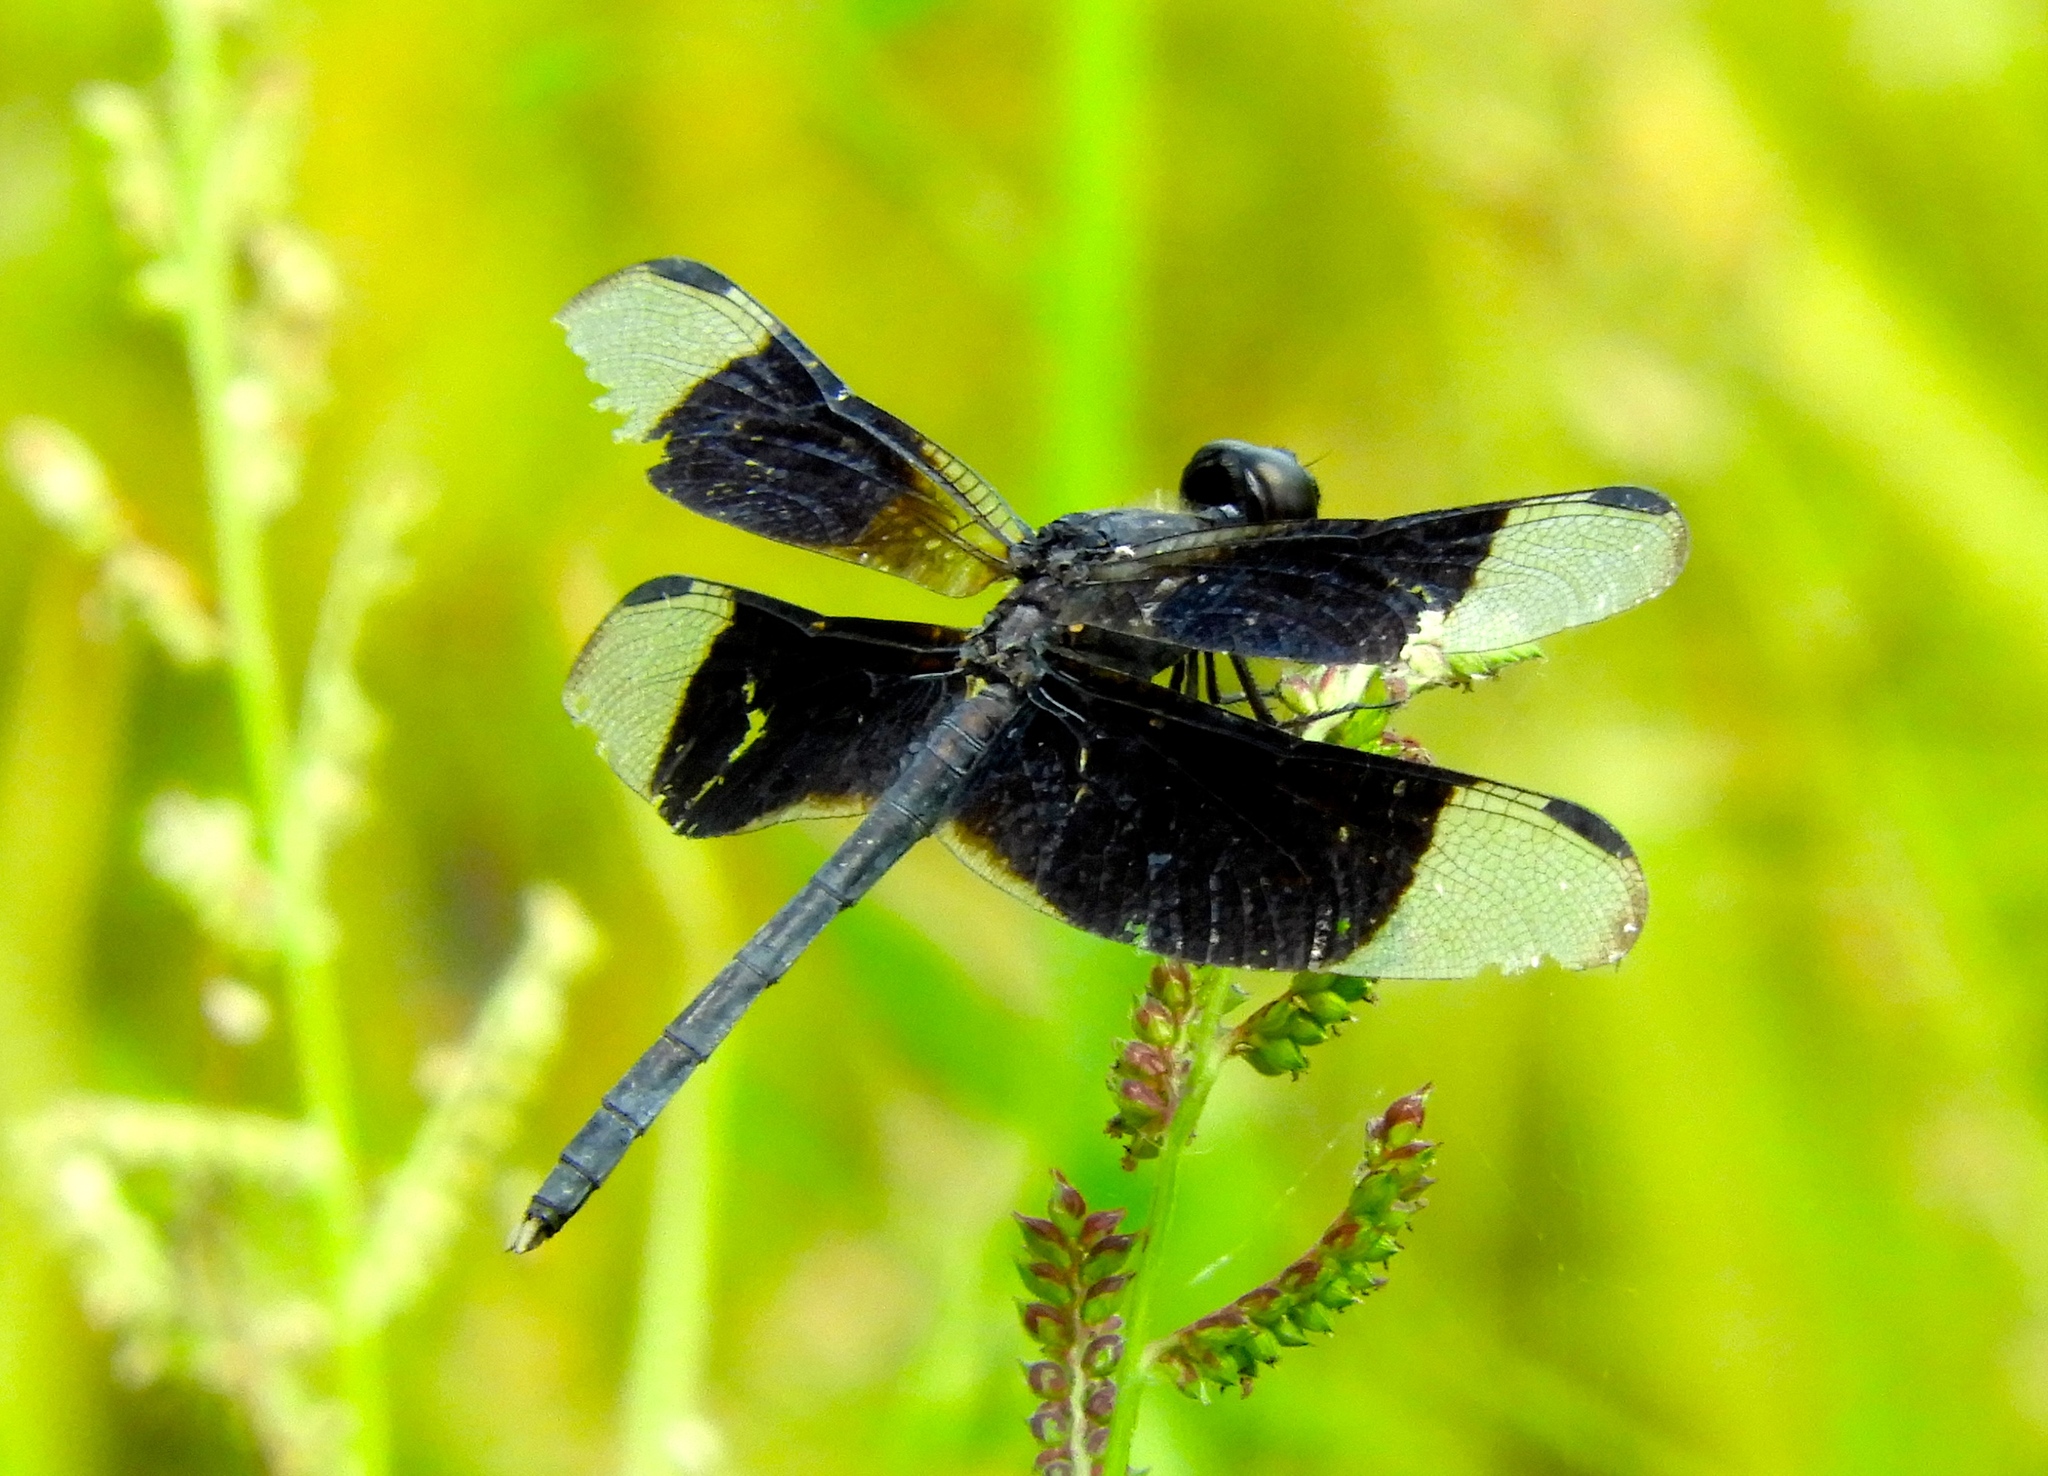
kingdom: Animalia
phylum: Arthropoda
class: Insecta
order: Odonata
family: Libellulidae
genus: Erythrodiplax
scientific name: Erythrodiplax funerea
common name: Black-winged dragonlet
